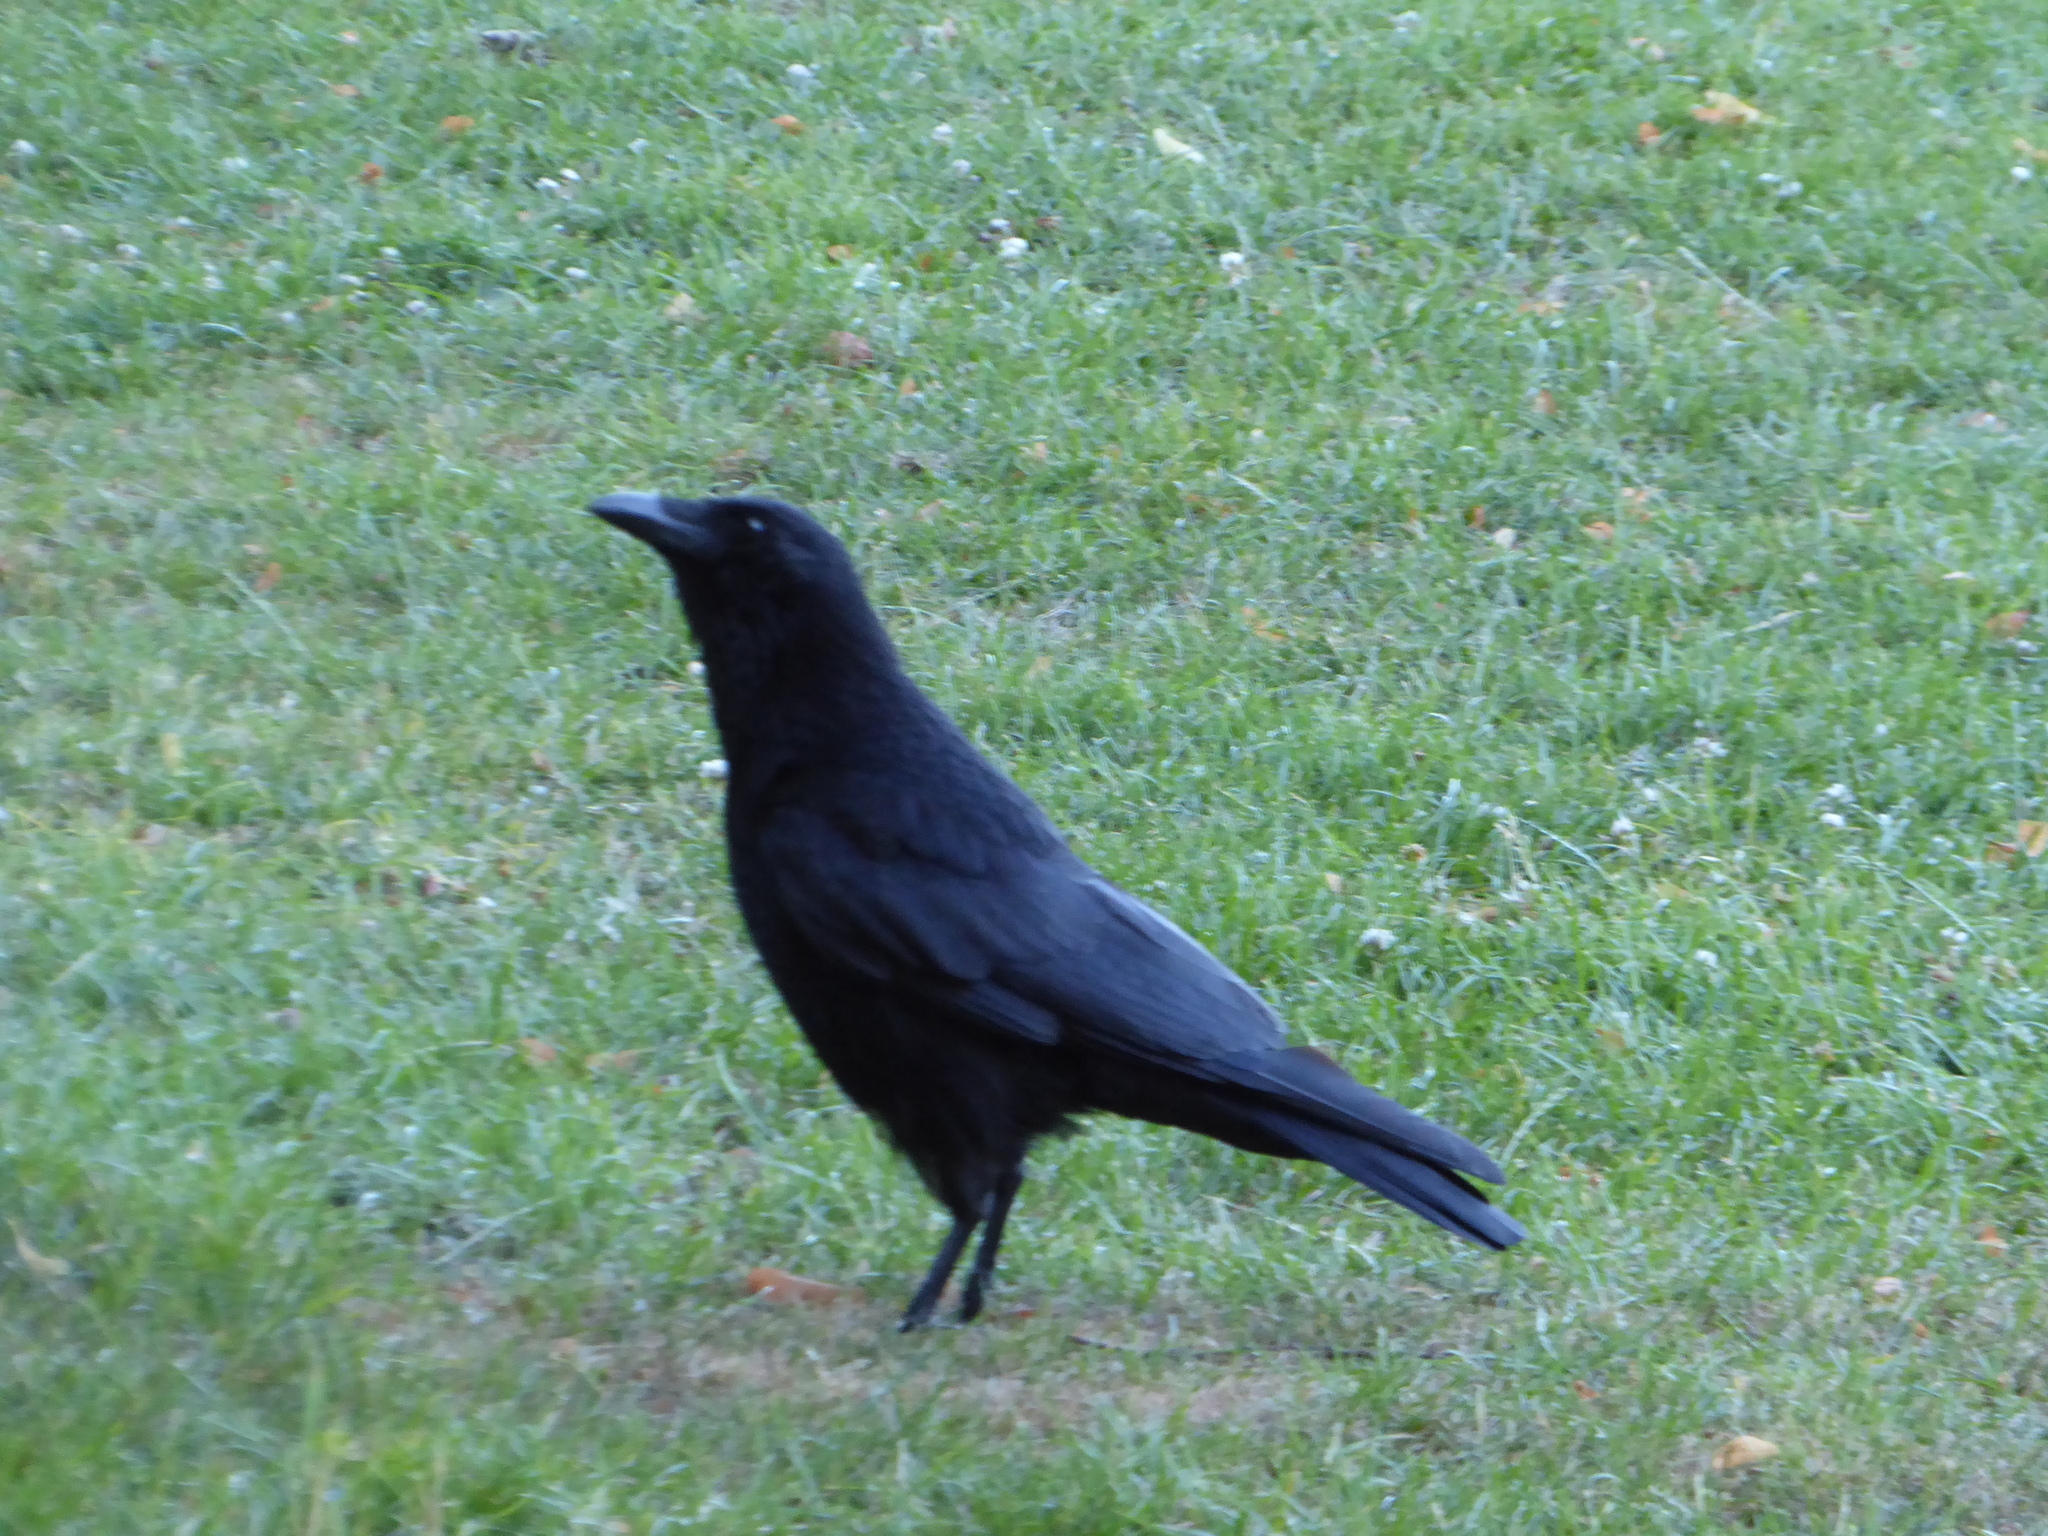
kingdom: Animalia
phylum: Chordata
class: Aves
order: Passeriformes
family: Corvidae
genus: Corvus
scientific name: Corvus corone
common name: Carrion crow
